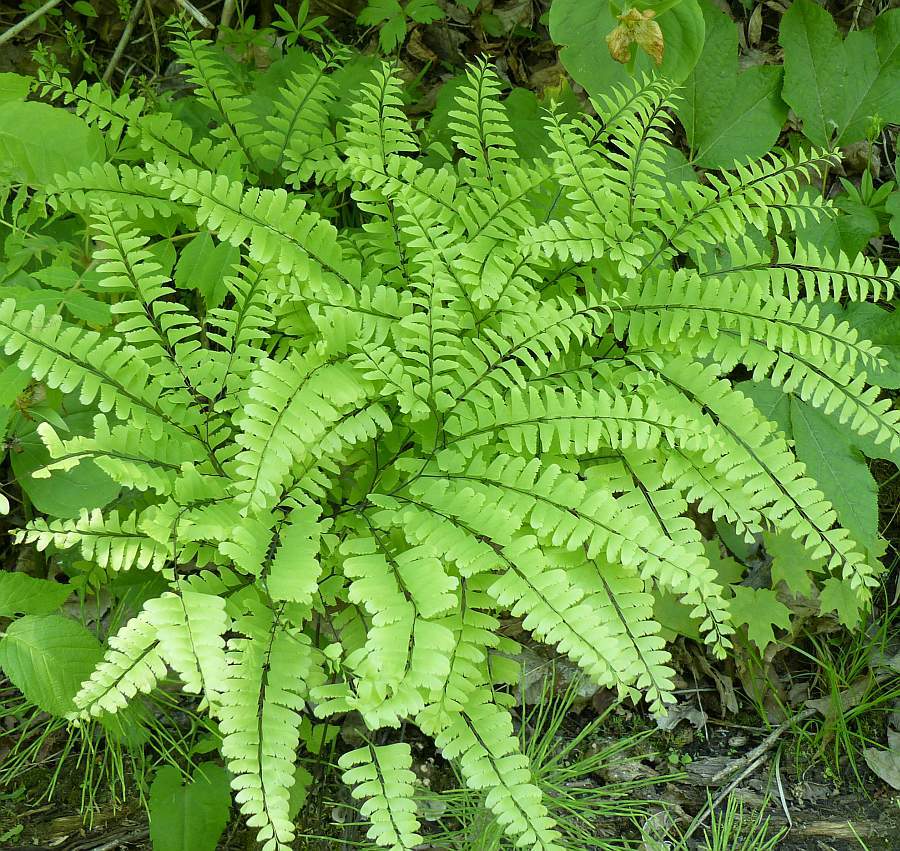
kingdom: Plantae
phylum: Tracheophyta
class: Polypodiopsida
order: Polypodiales
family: Pteridaceae
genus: Adiantum
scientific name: Adiantum pedatum
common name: Five-finger fern
